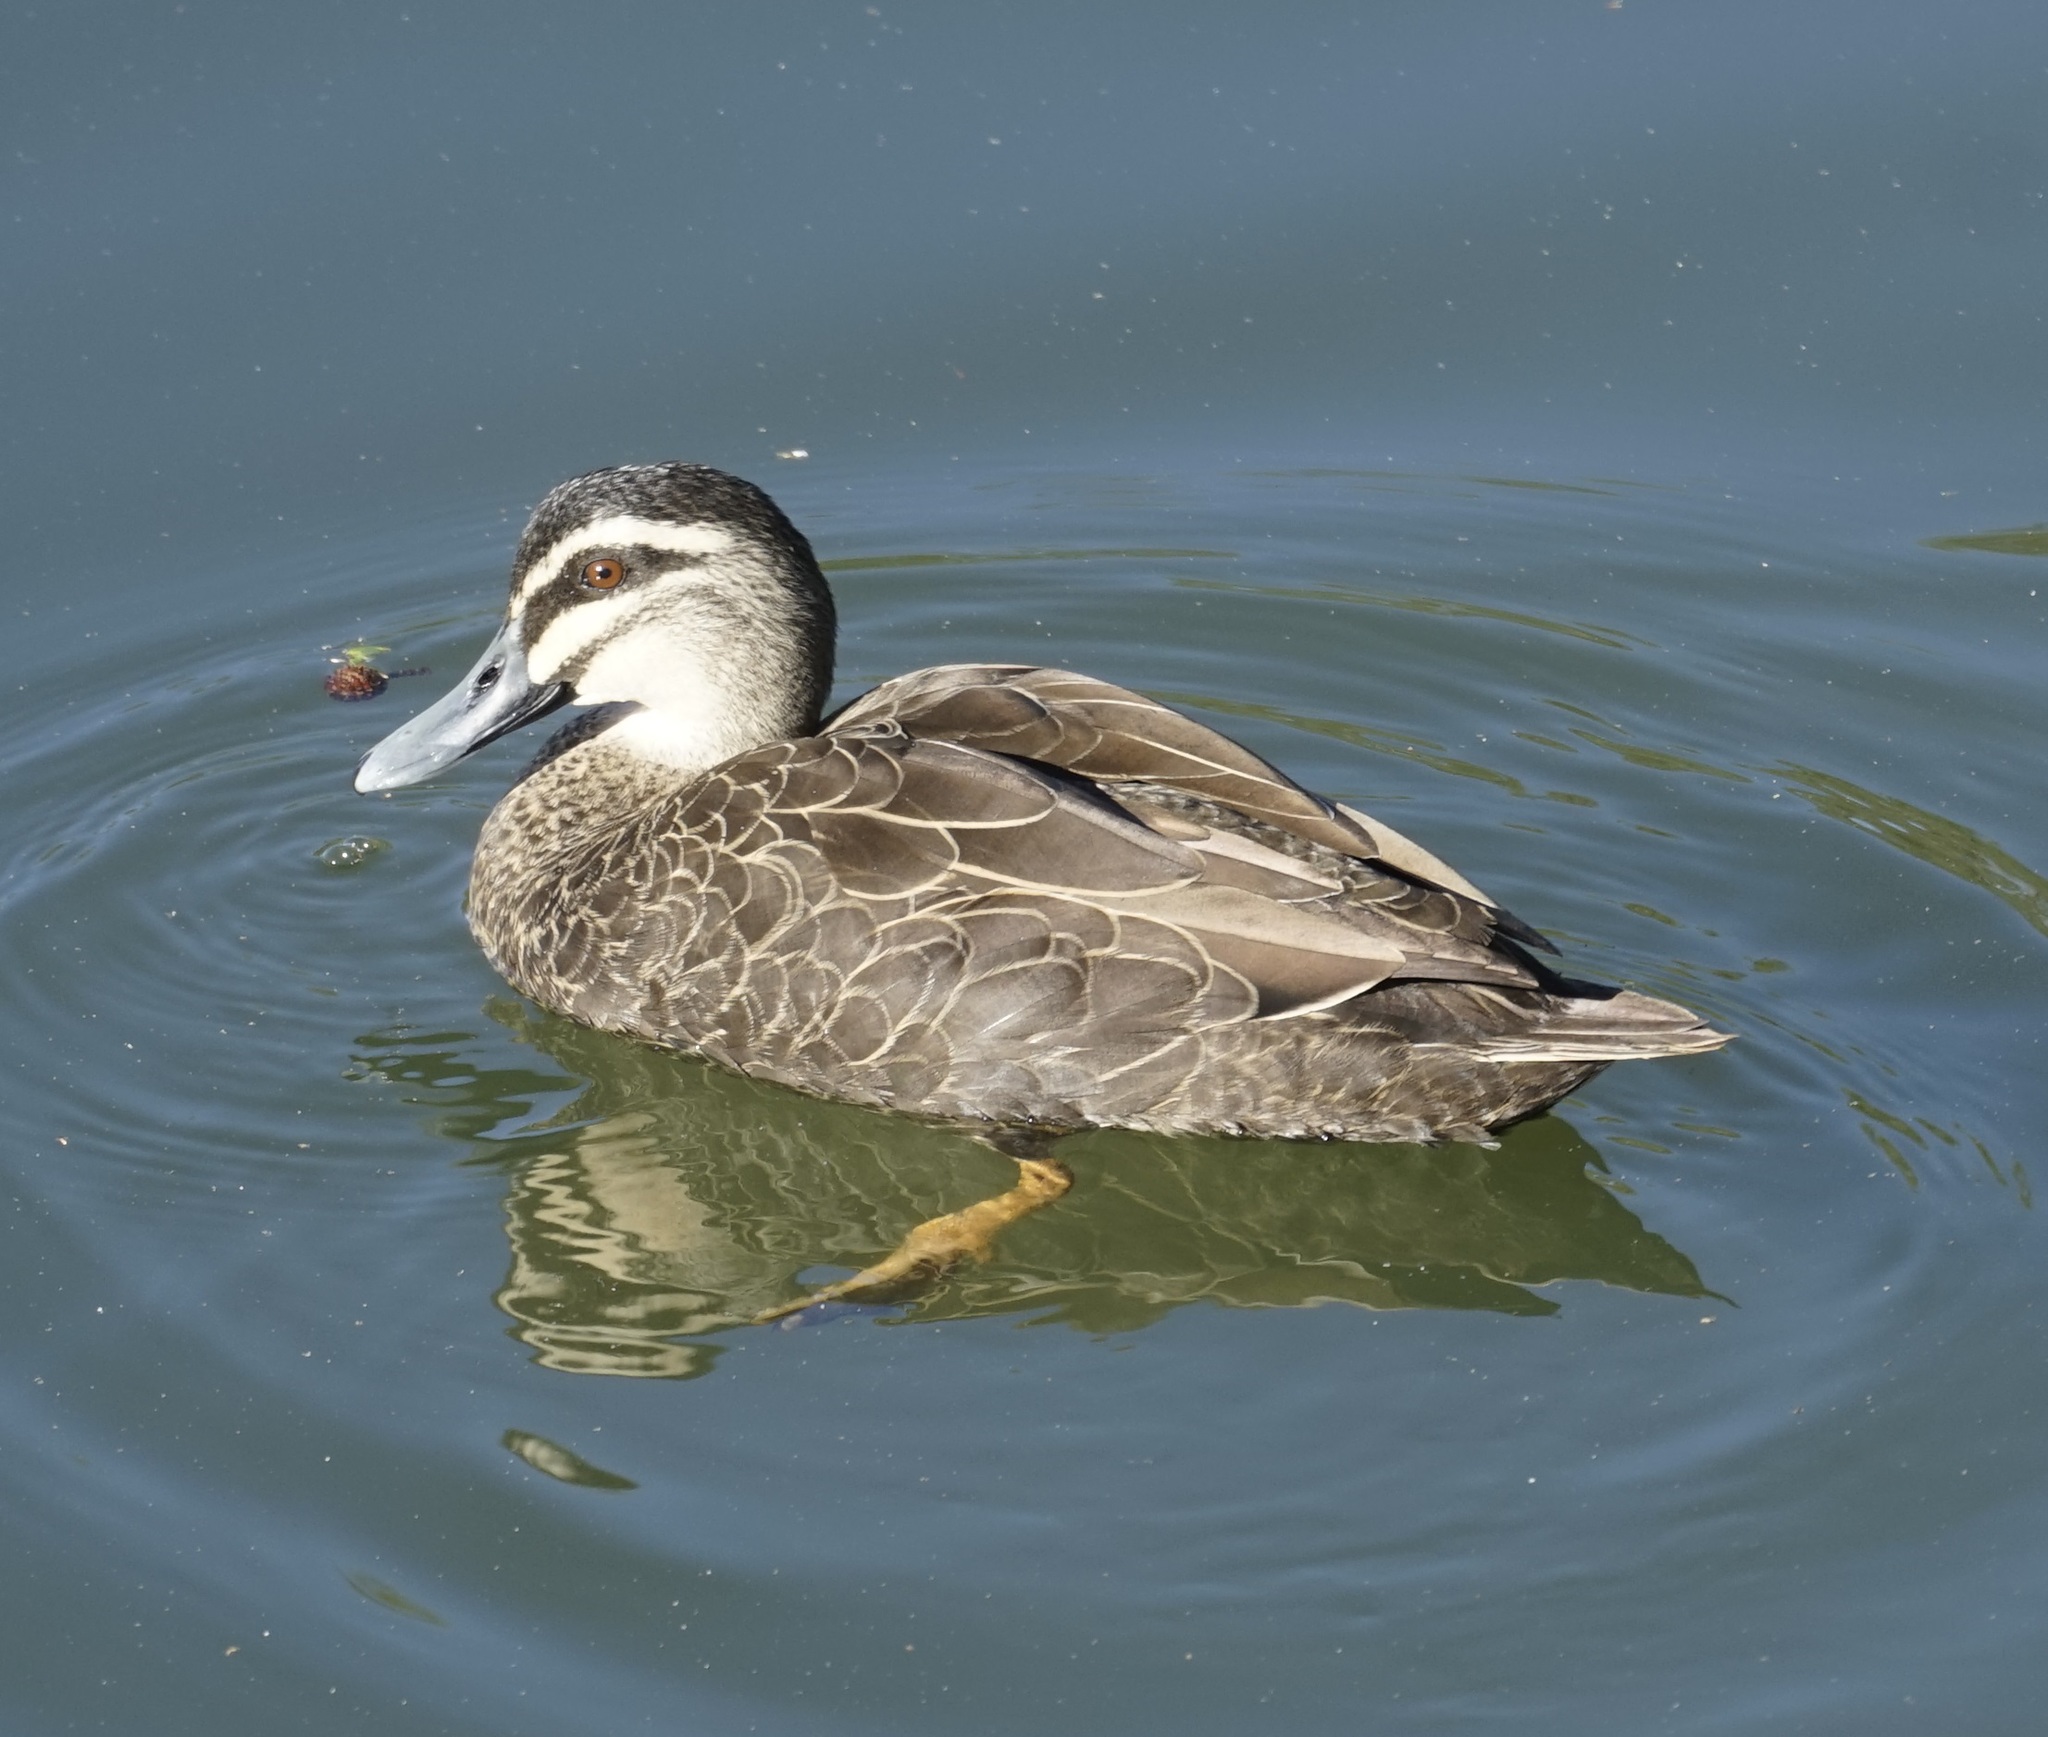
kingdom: Animalia
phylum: Chordata
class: Aves
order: Anseriformes
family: Anatidae
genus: Anas
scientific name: Anas superciliosa
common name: Pacific black duck
